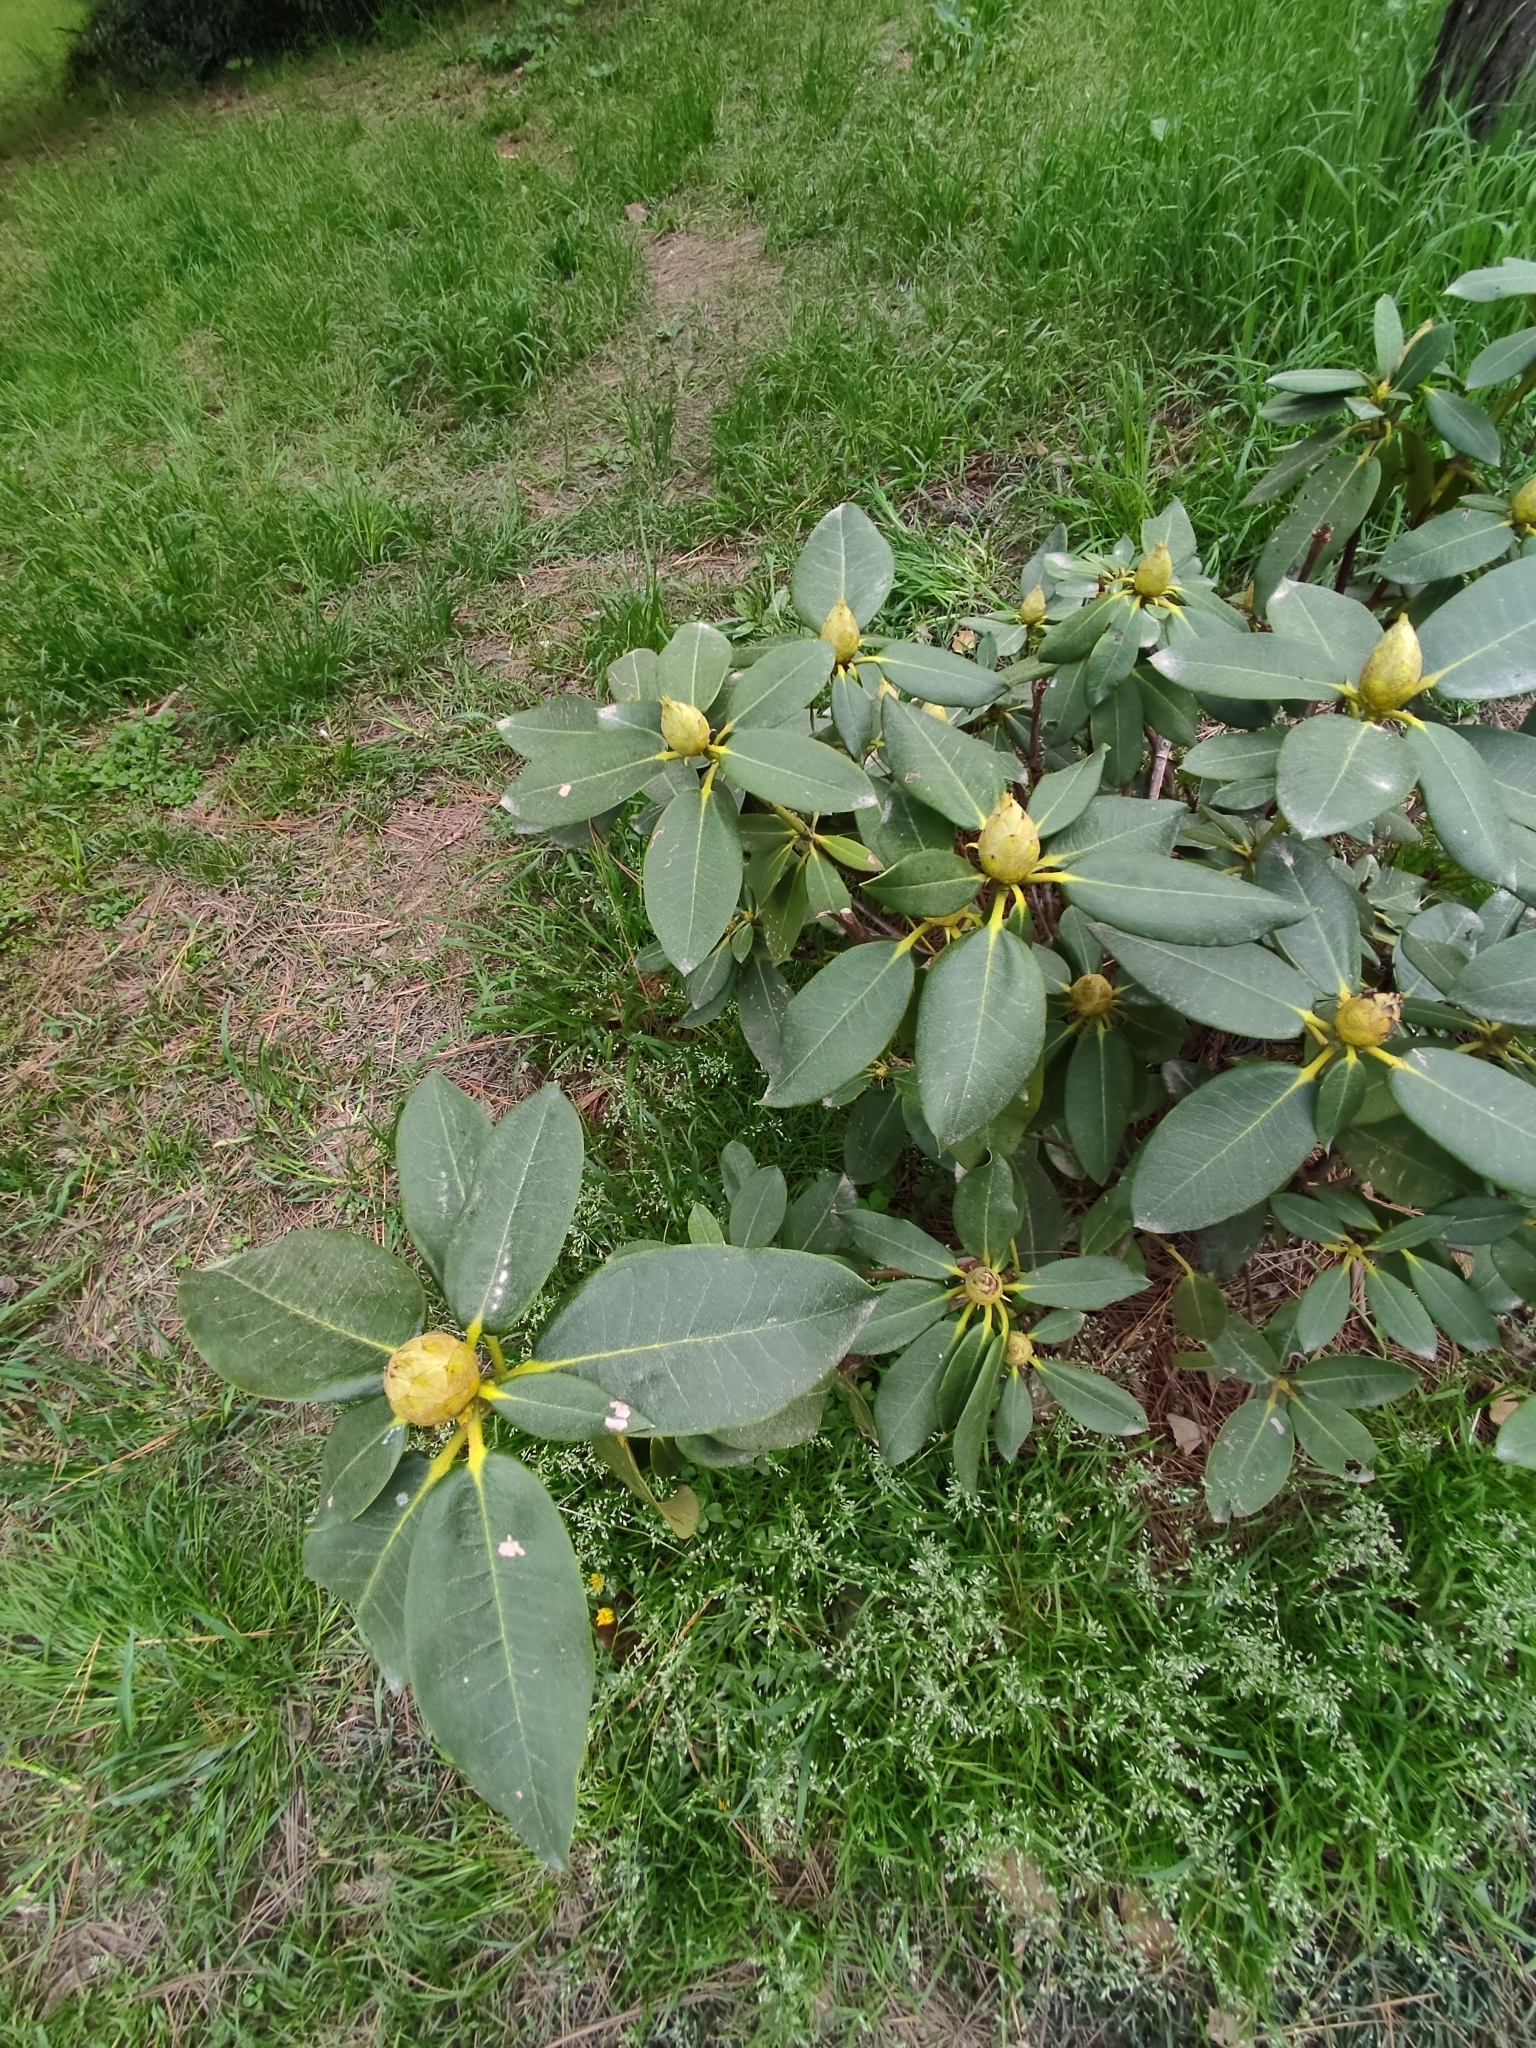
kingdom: Plantae
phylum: Tracheophyta
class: Magnoliopsida
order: Ericales
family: Ericaceae
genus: Rhododendron
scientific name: Rhododendron ponticum
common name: Rhododendron
